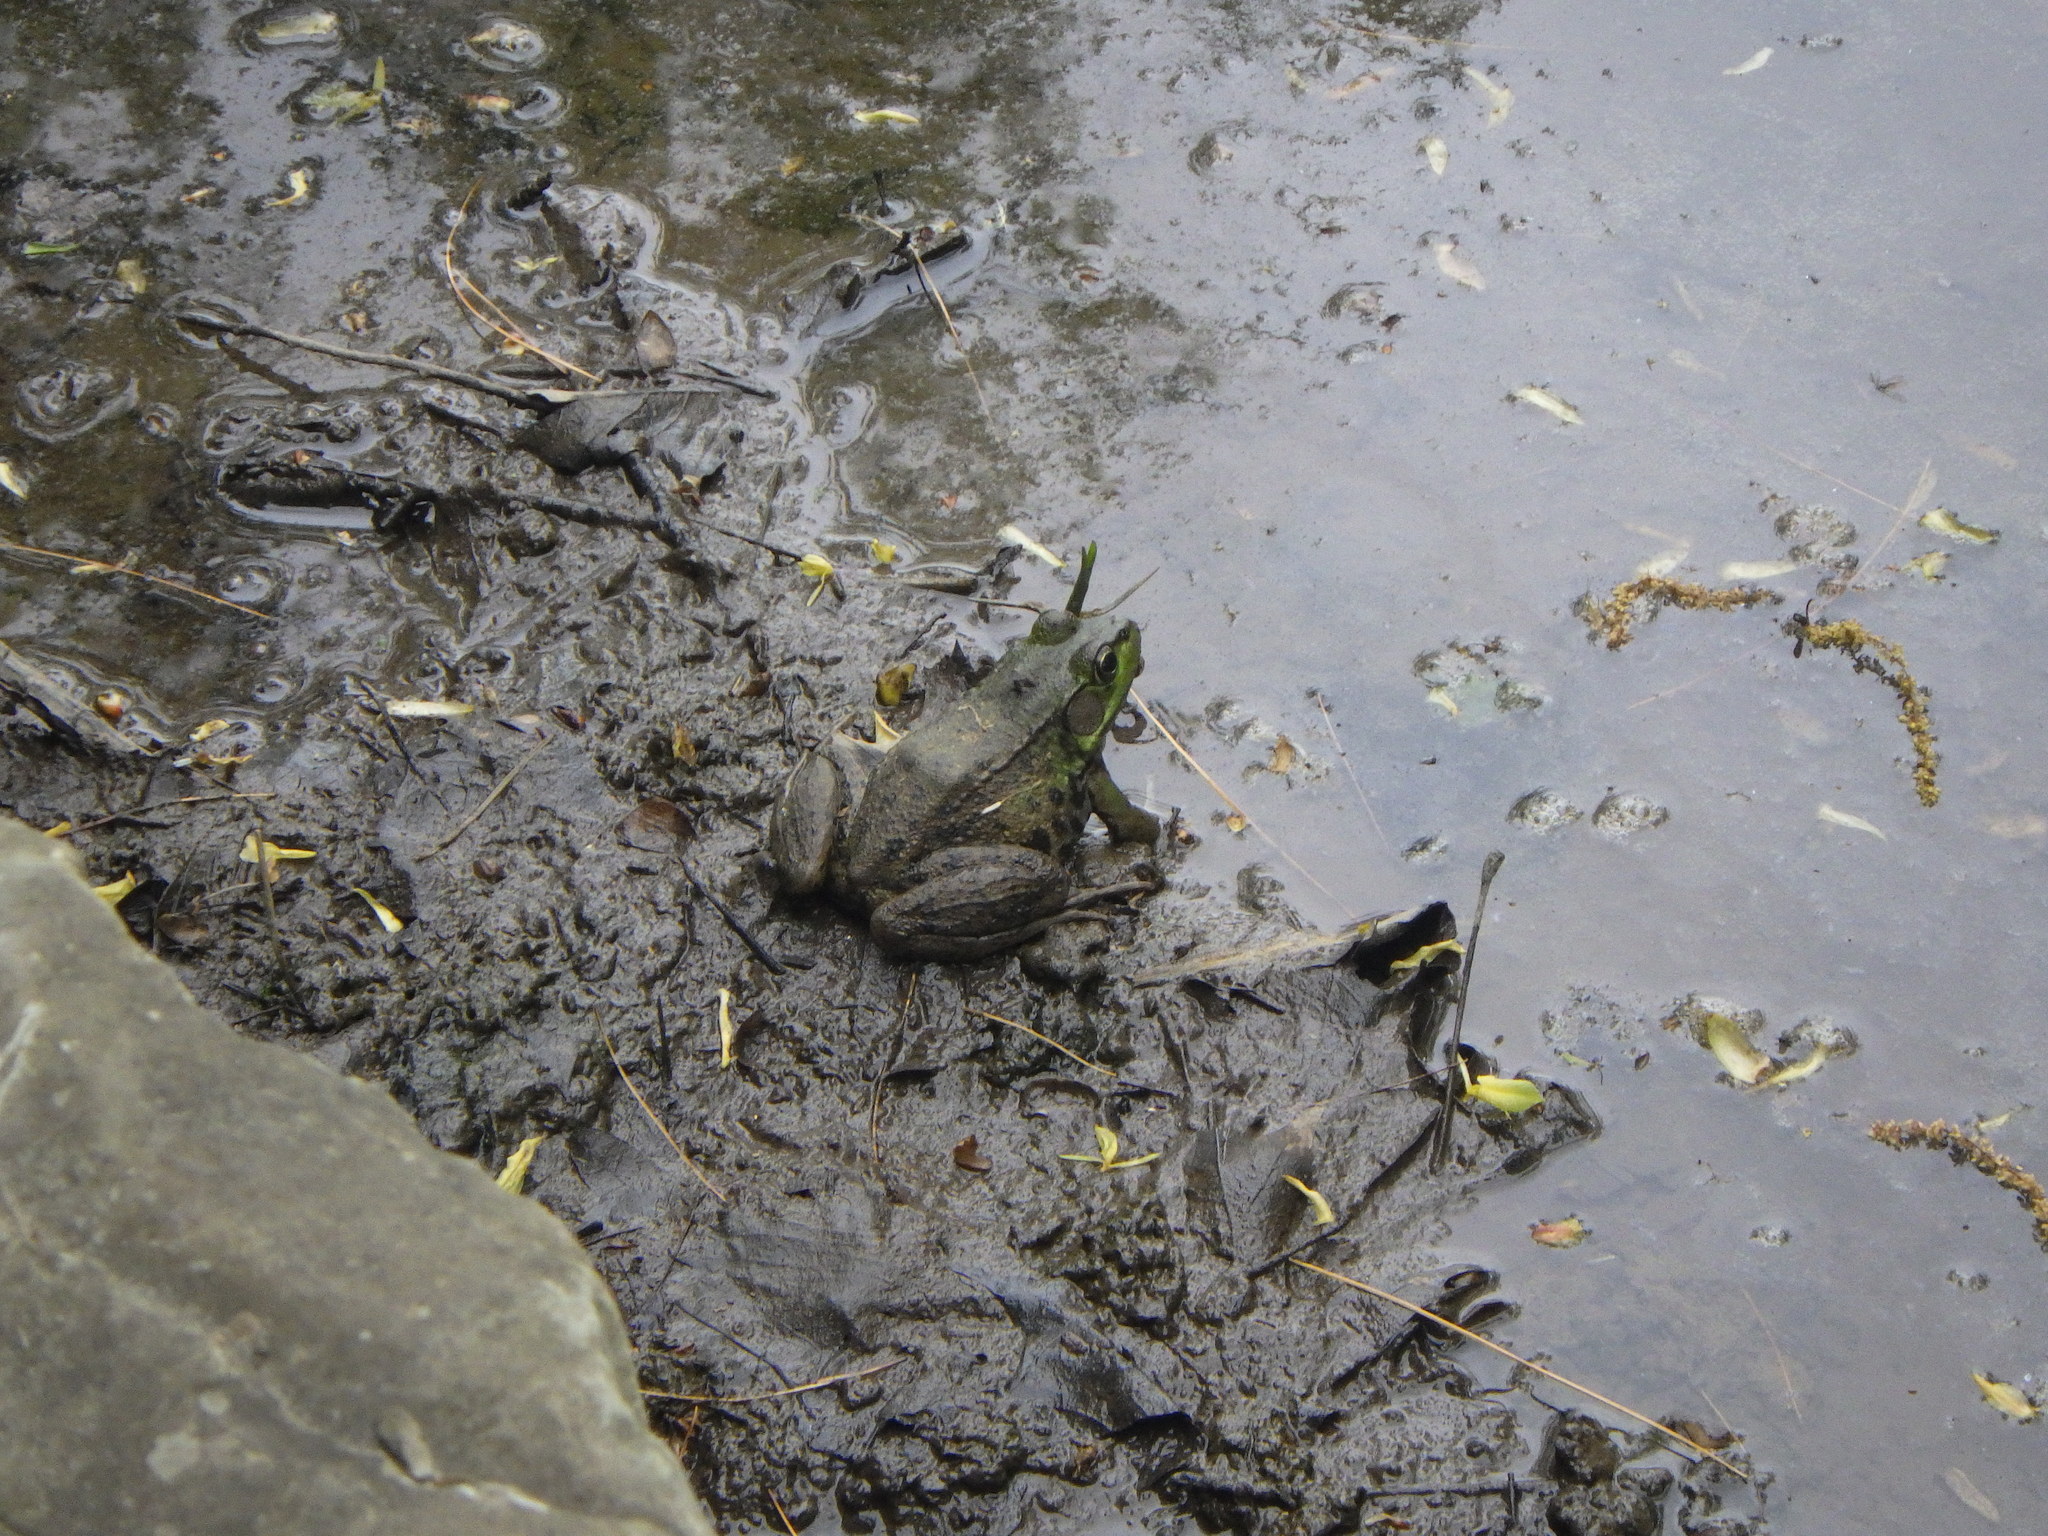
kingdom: Animalia
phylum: Chordata
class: Amphibia
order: Anura
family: Ranidae
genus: Lithobates
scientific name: Lithobates clamitans
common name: Green frog
